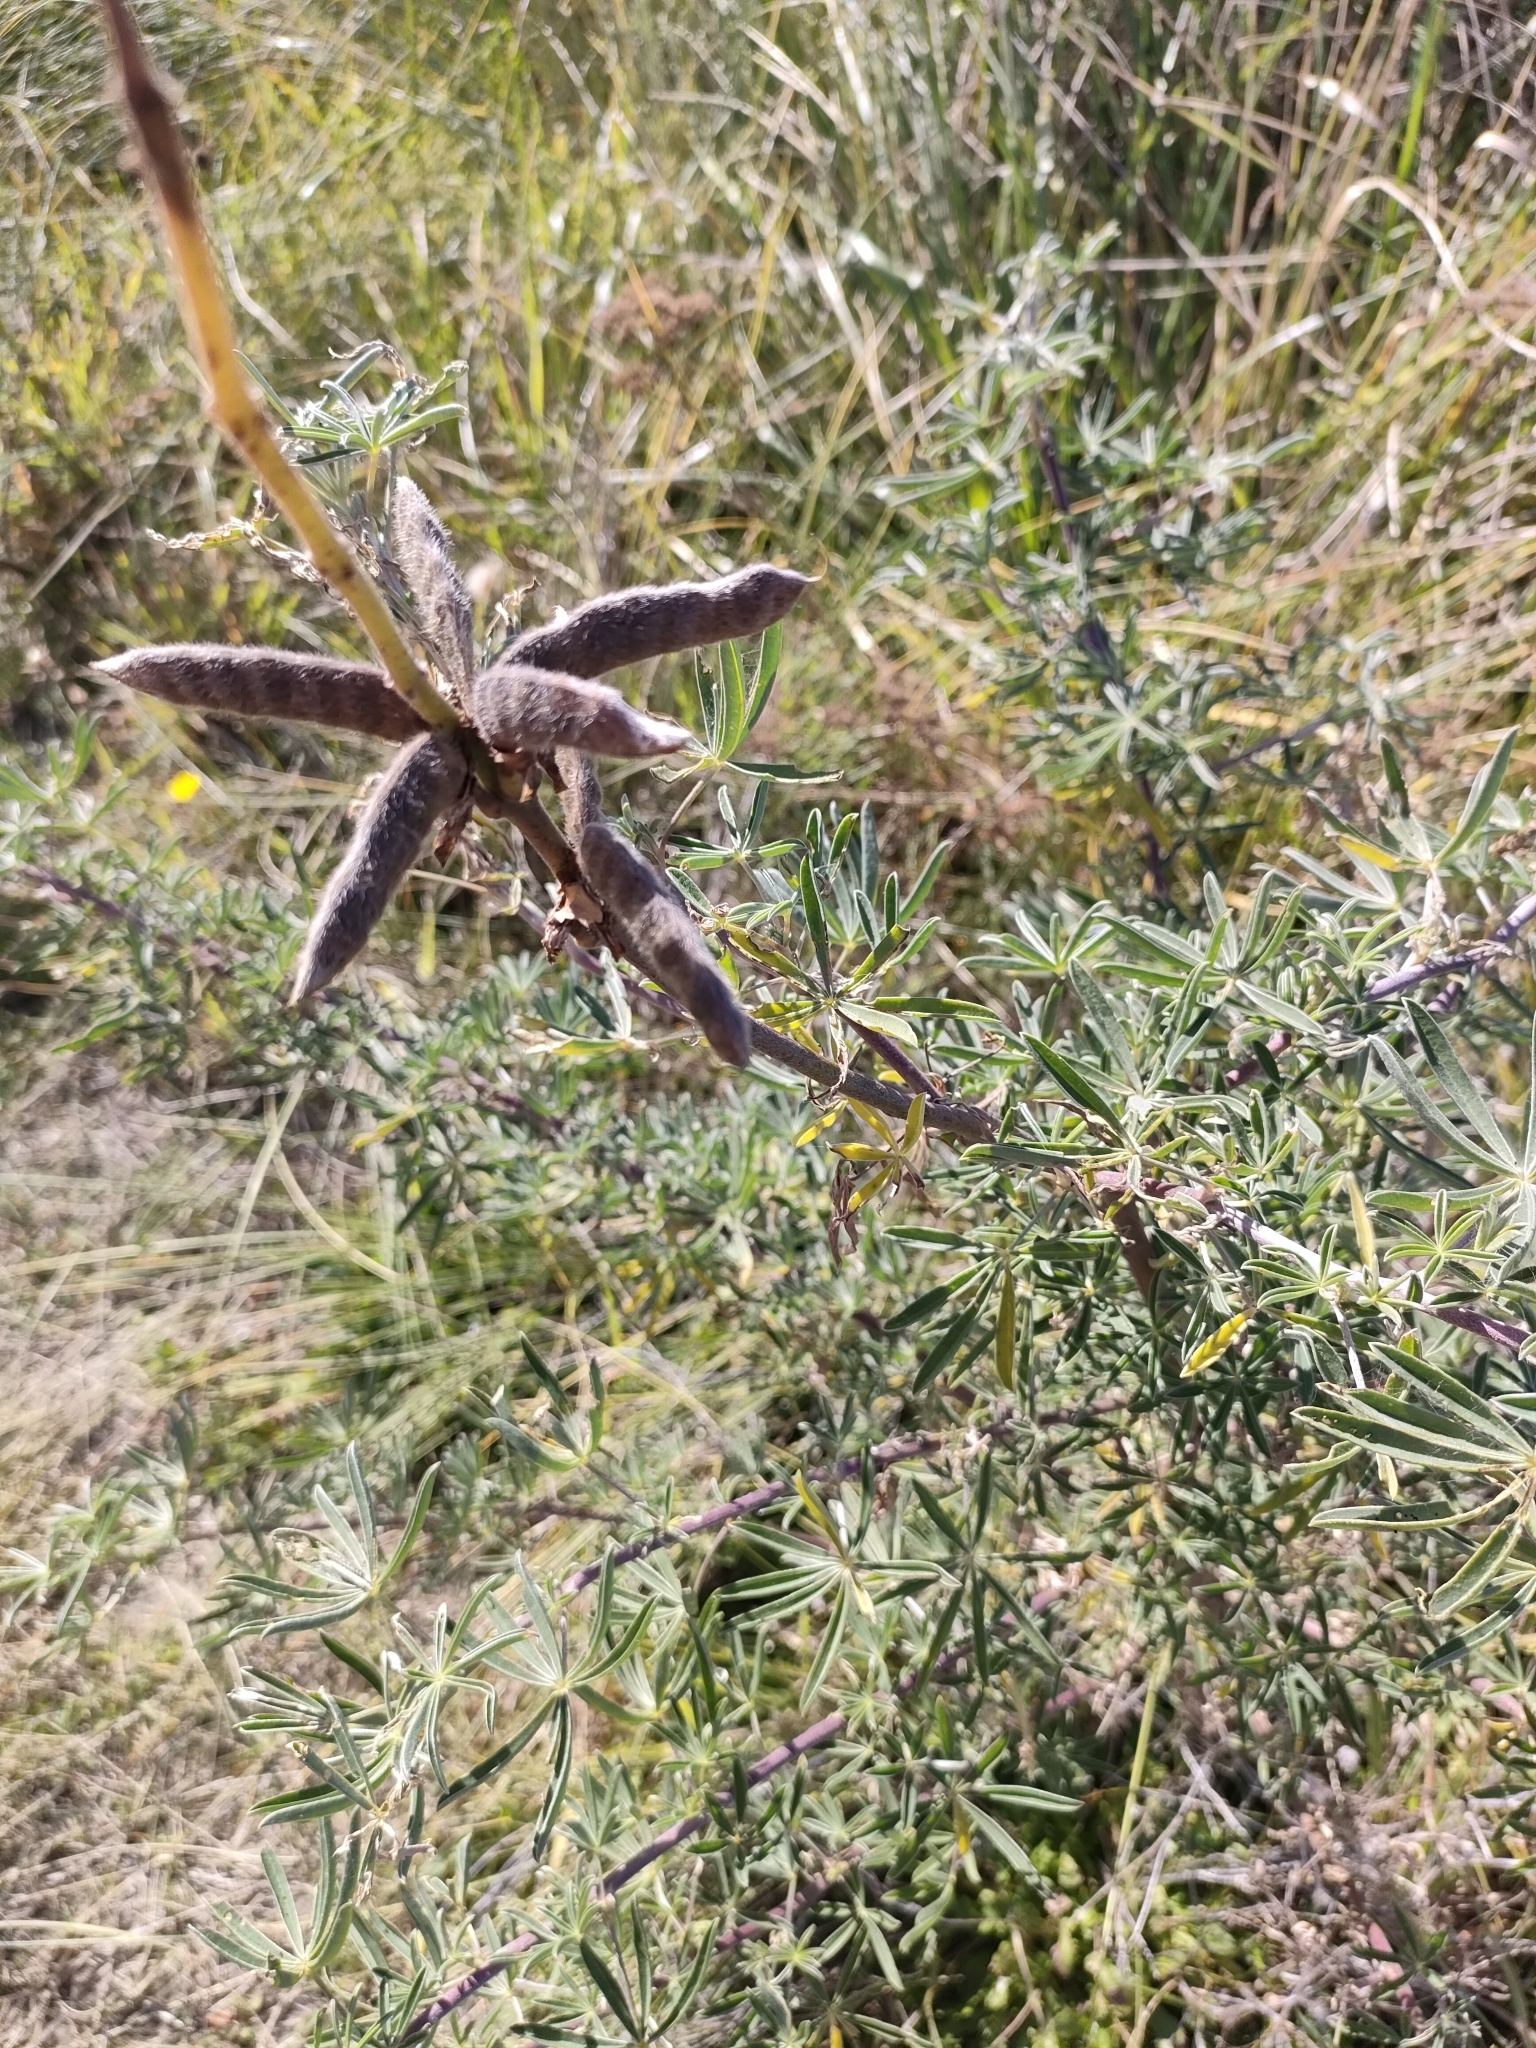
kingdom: Plantae
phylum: Tracheophyta
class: Magnoliopsida
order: Fabales
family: Fabaceae
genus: Lupinus
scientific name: Lupinus arboreus
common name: Yellow bush lupine
